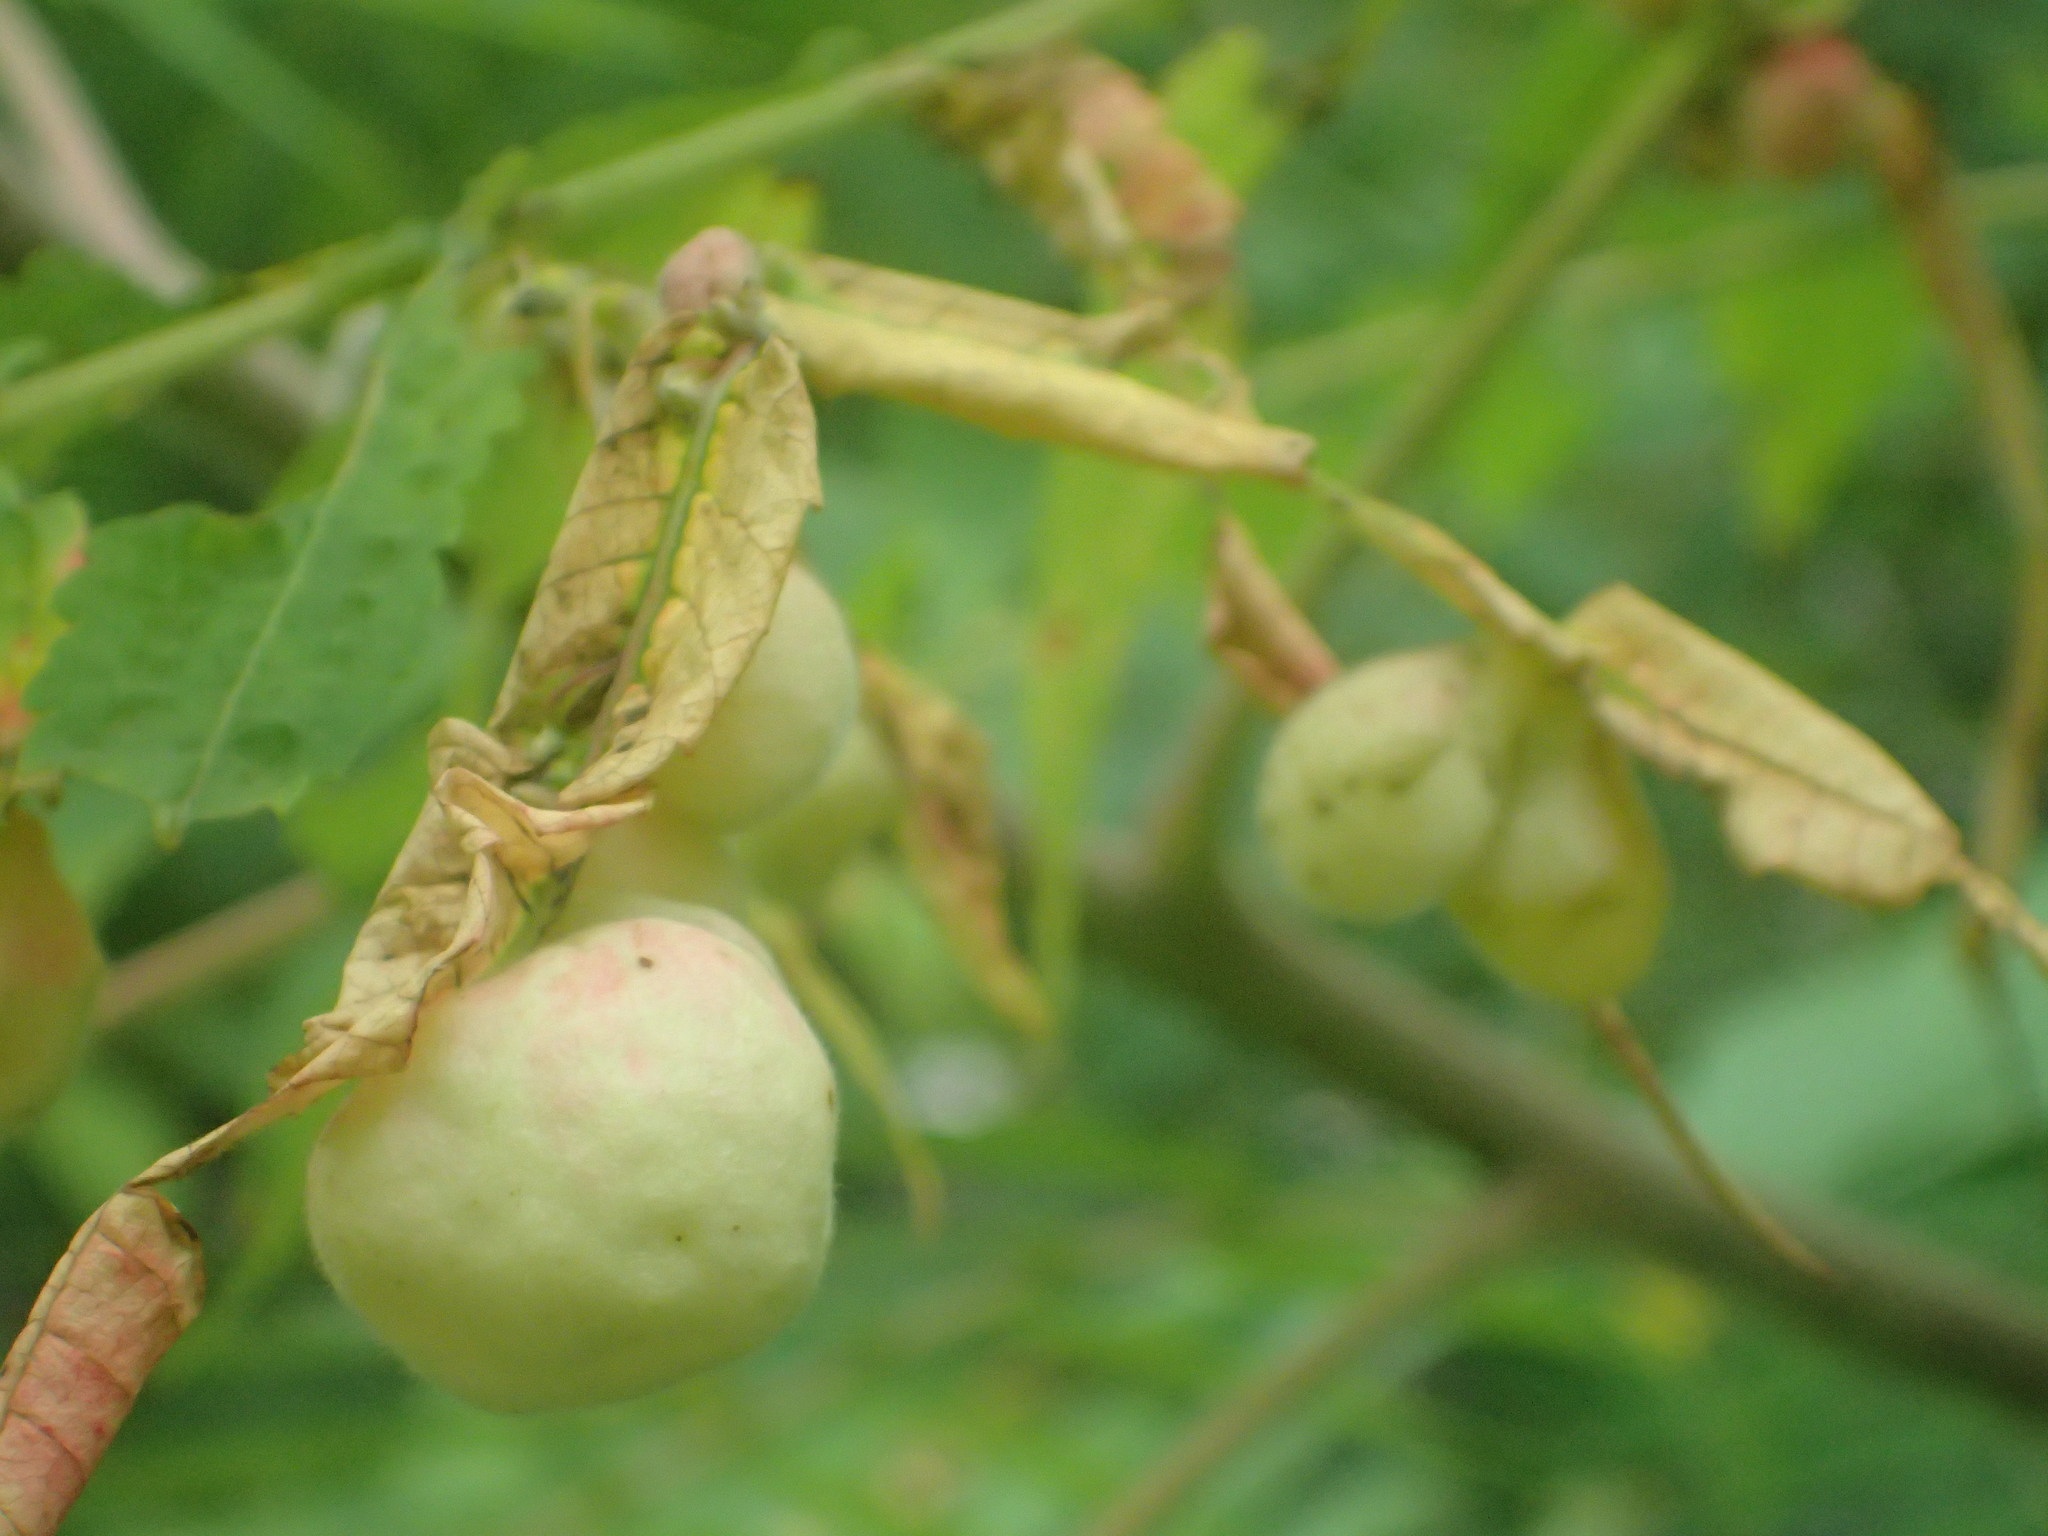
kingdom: Animalia
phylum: Arthropoda
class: Insecta
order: Hemiptera
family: Aphididae
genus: Melaphis
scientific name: Melaphis rhois
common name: Sumac gall aphid
